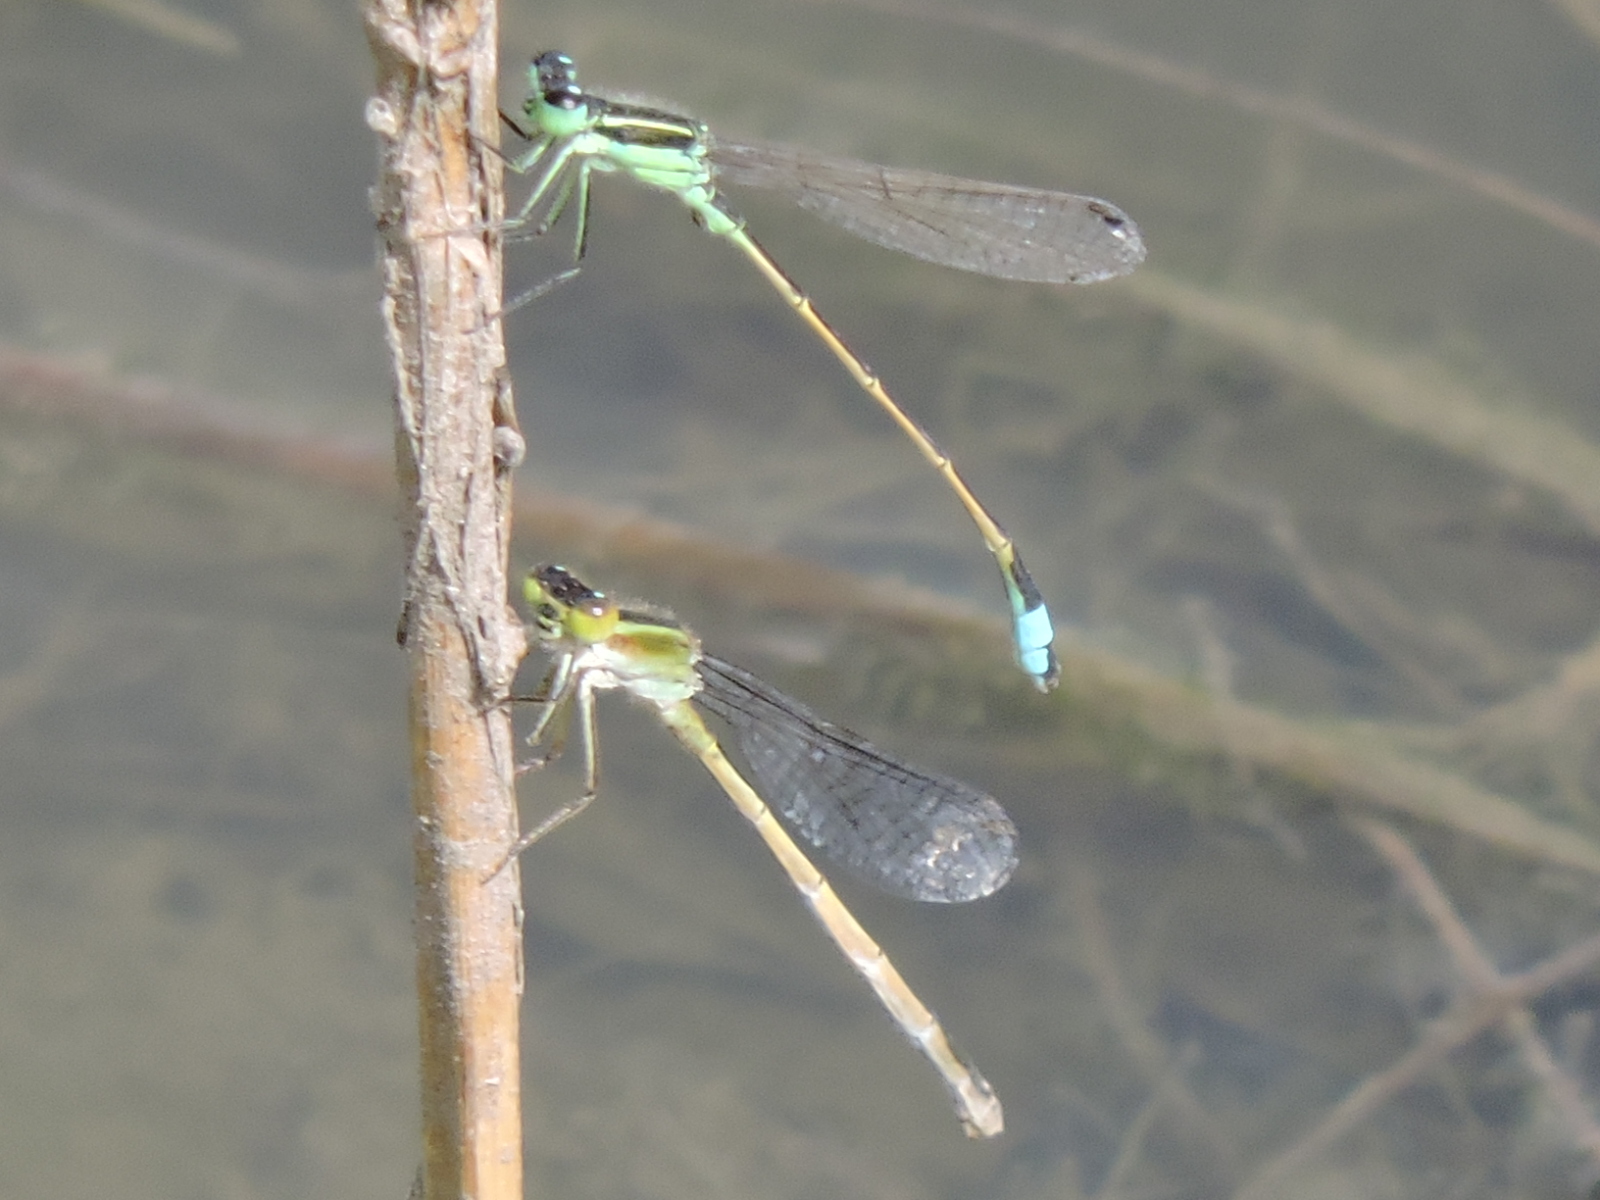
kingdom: Animalia
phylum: Arthropoda
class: Insecta
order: Odonata
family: Coenagrionidae
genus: Ischnura
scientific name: Ischnura ramburii
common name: Rambur's forktail
